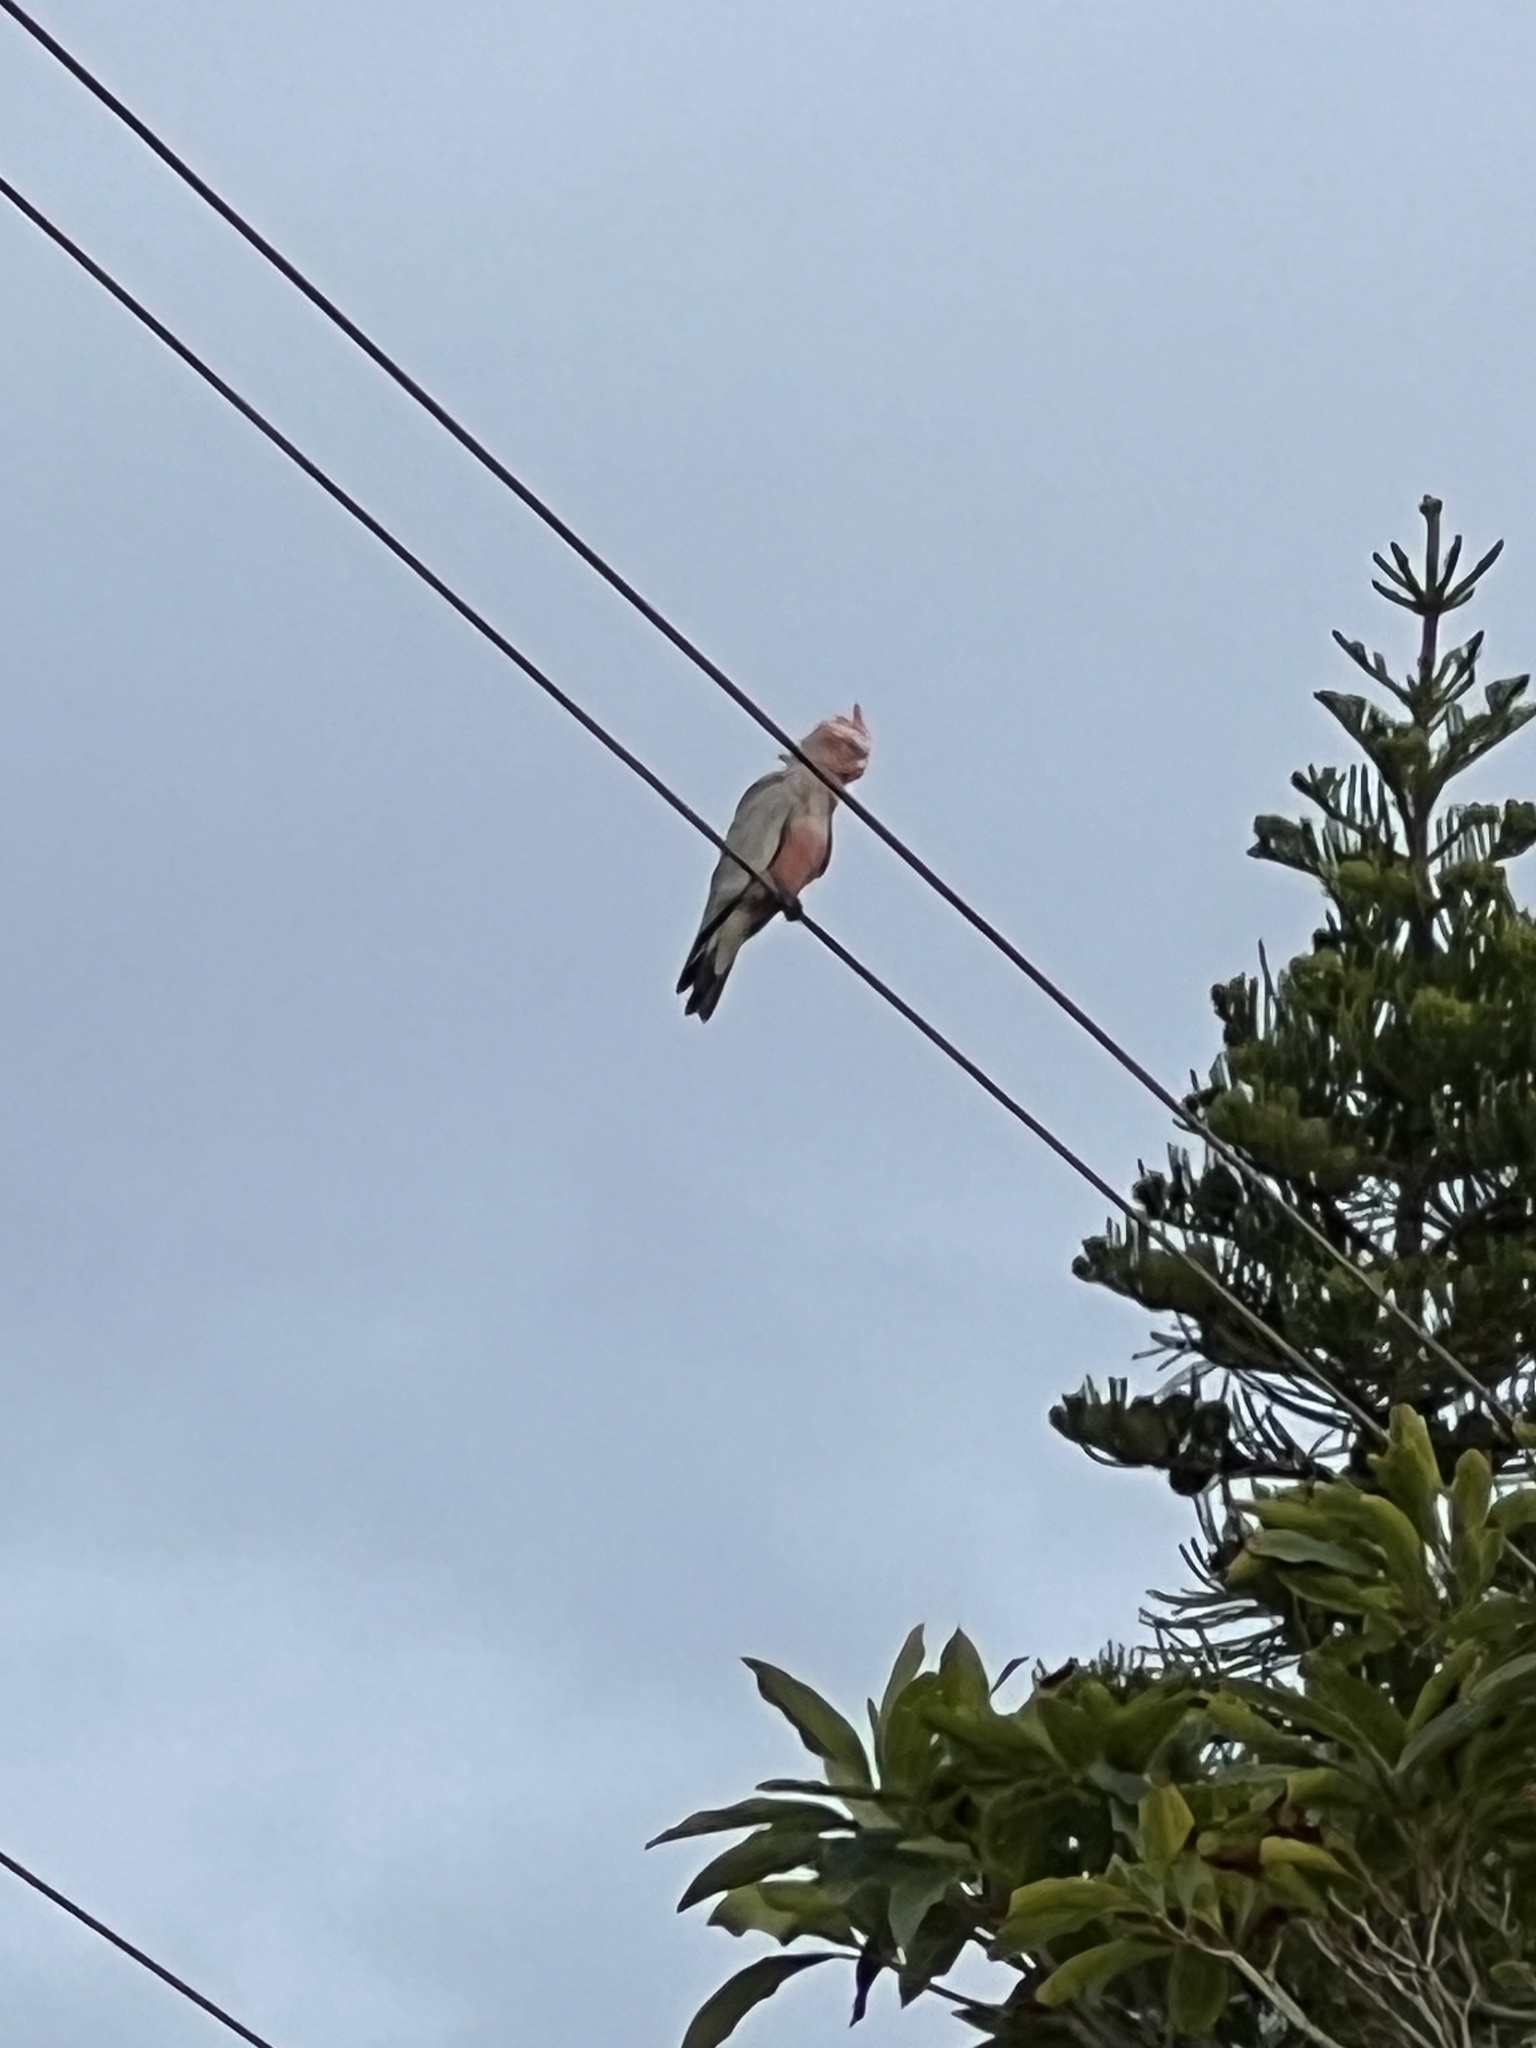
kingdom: Animalia
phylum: Chordata
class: Aves
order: Psittaciformes
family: Psittacidae
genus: Eolophus
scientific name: Eolophus roseicapilla
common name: Galah
